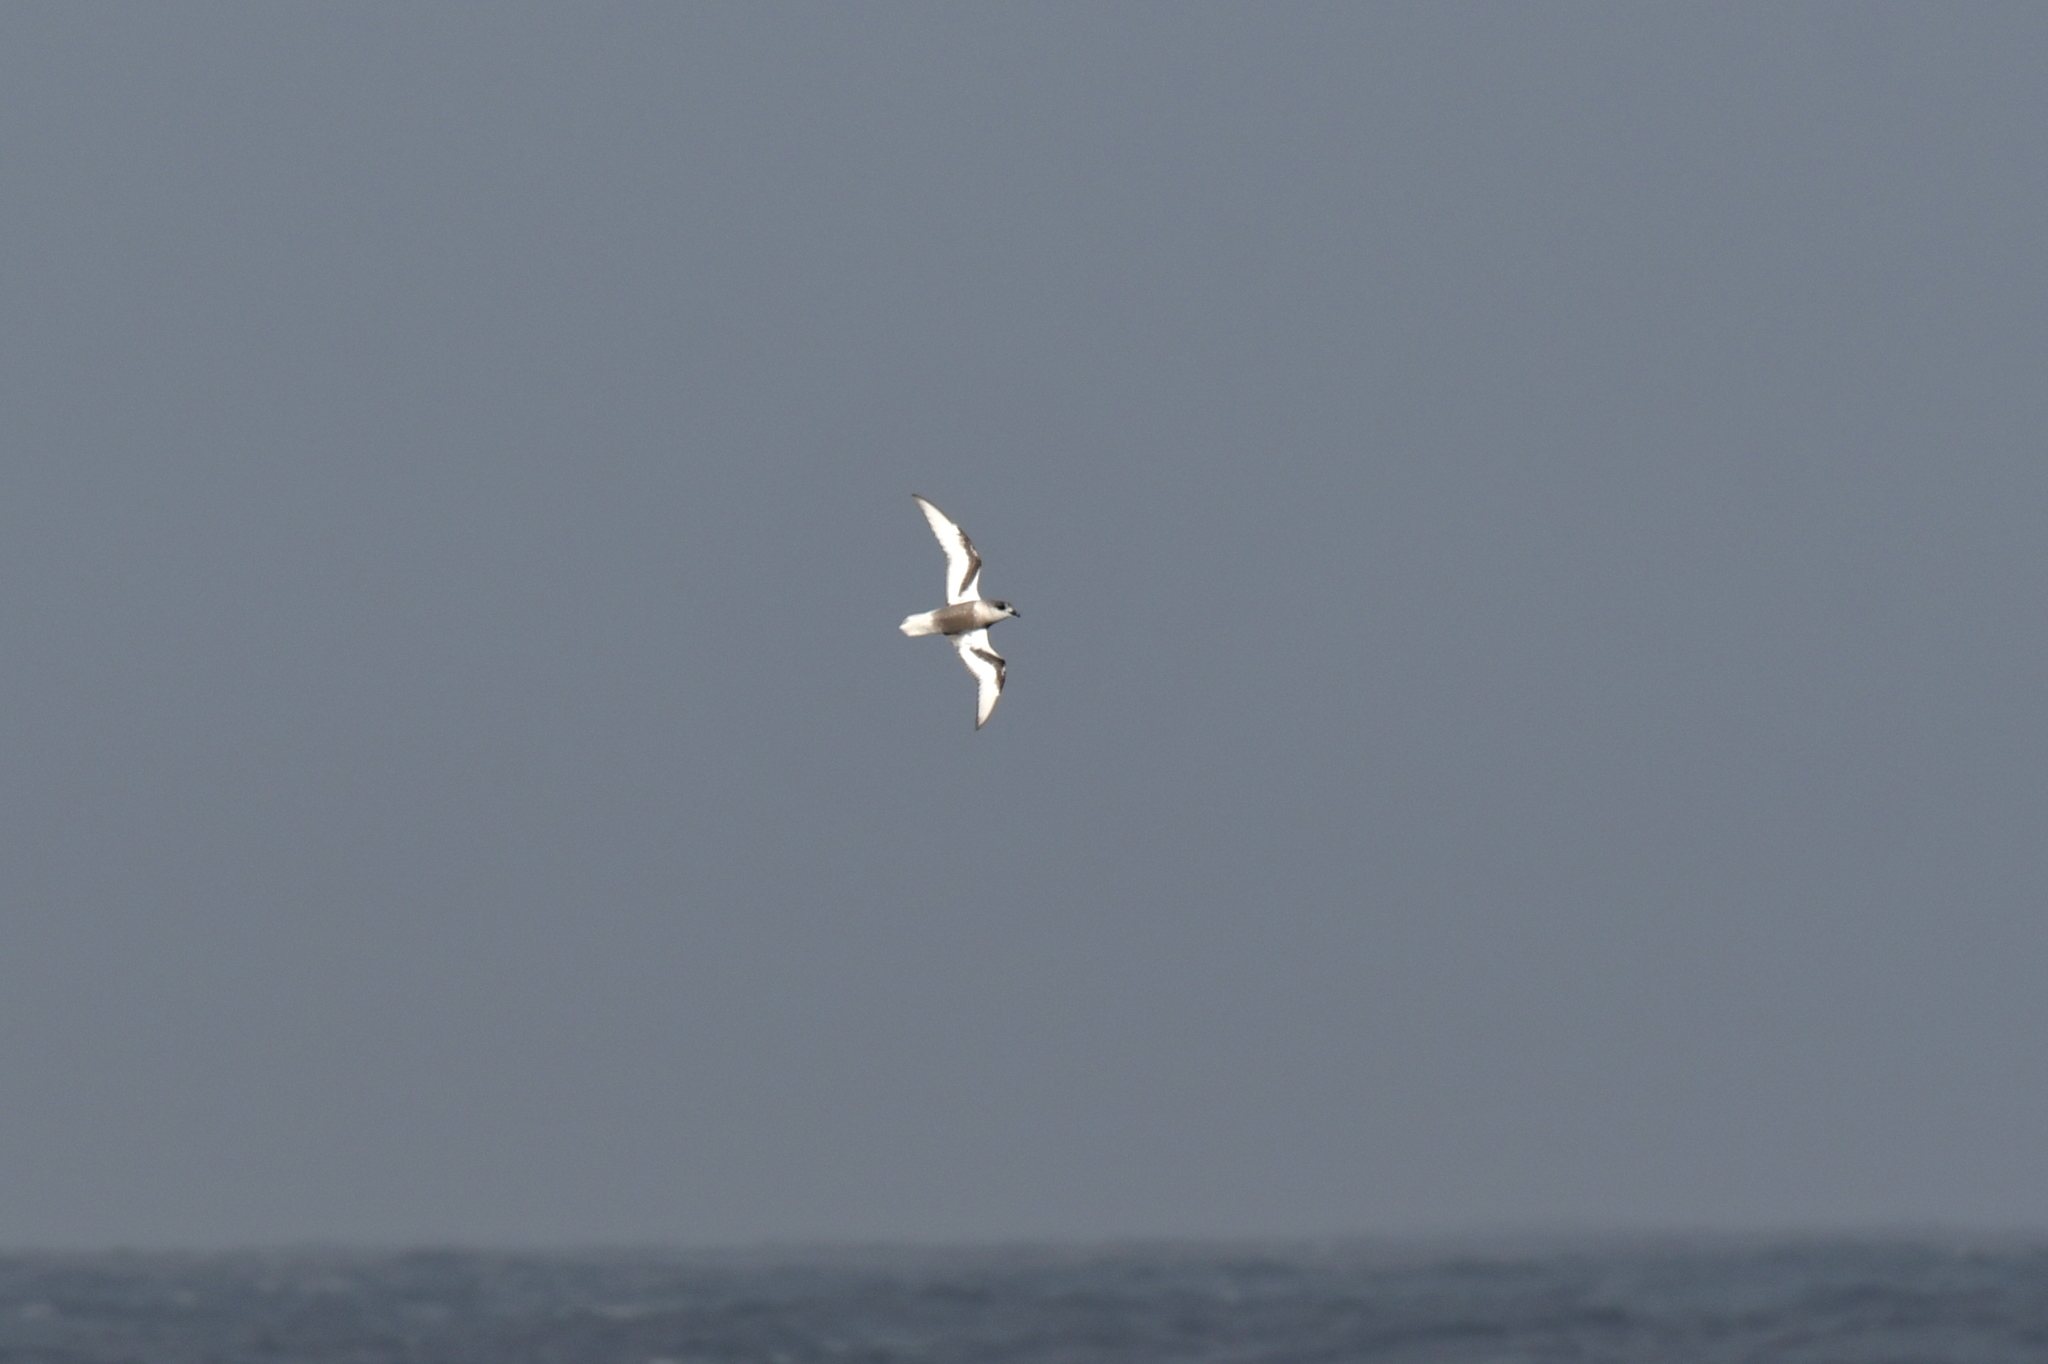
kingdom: Animalia
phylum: Chordata
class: Aves
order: Procellariiformes
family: Procellariidae
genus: Pterodroma
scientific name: Pterodroma inexpectata
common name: Mottled petrel
